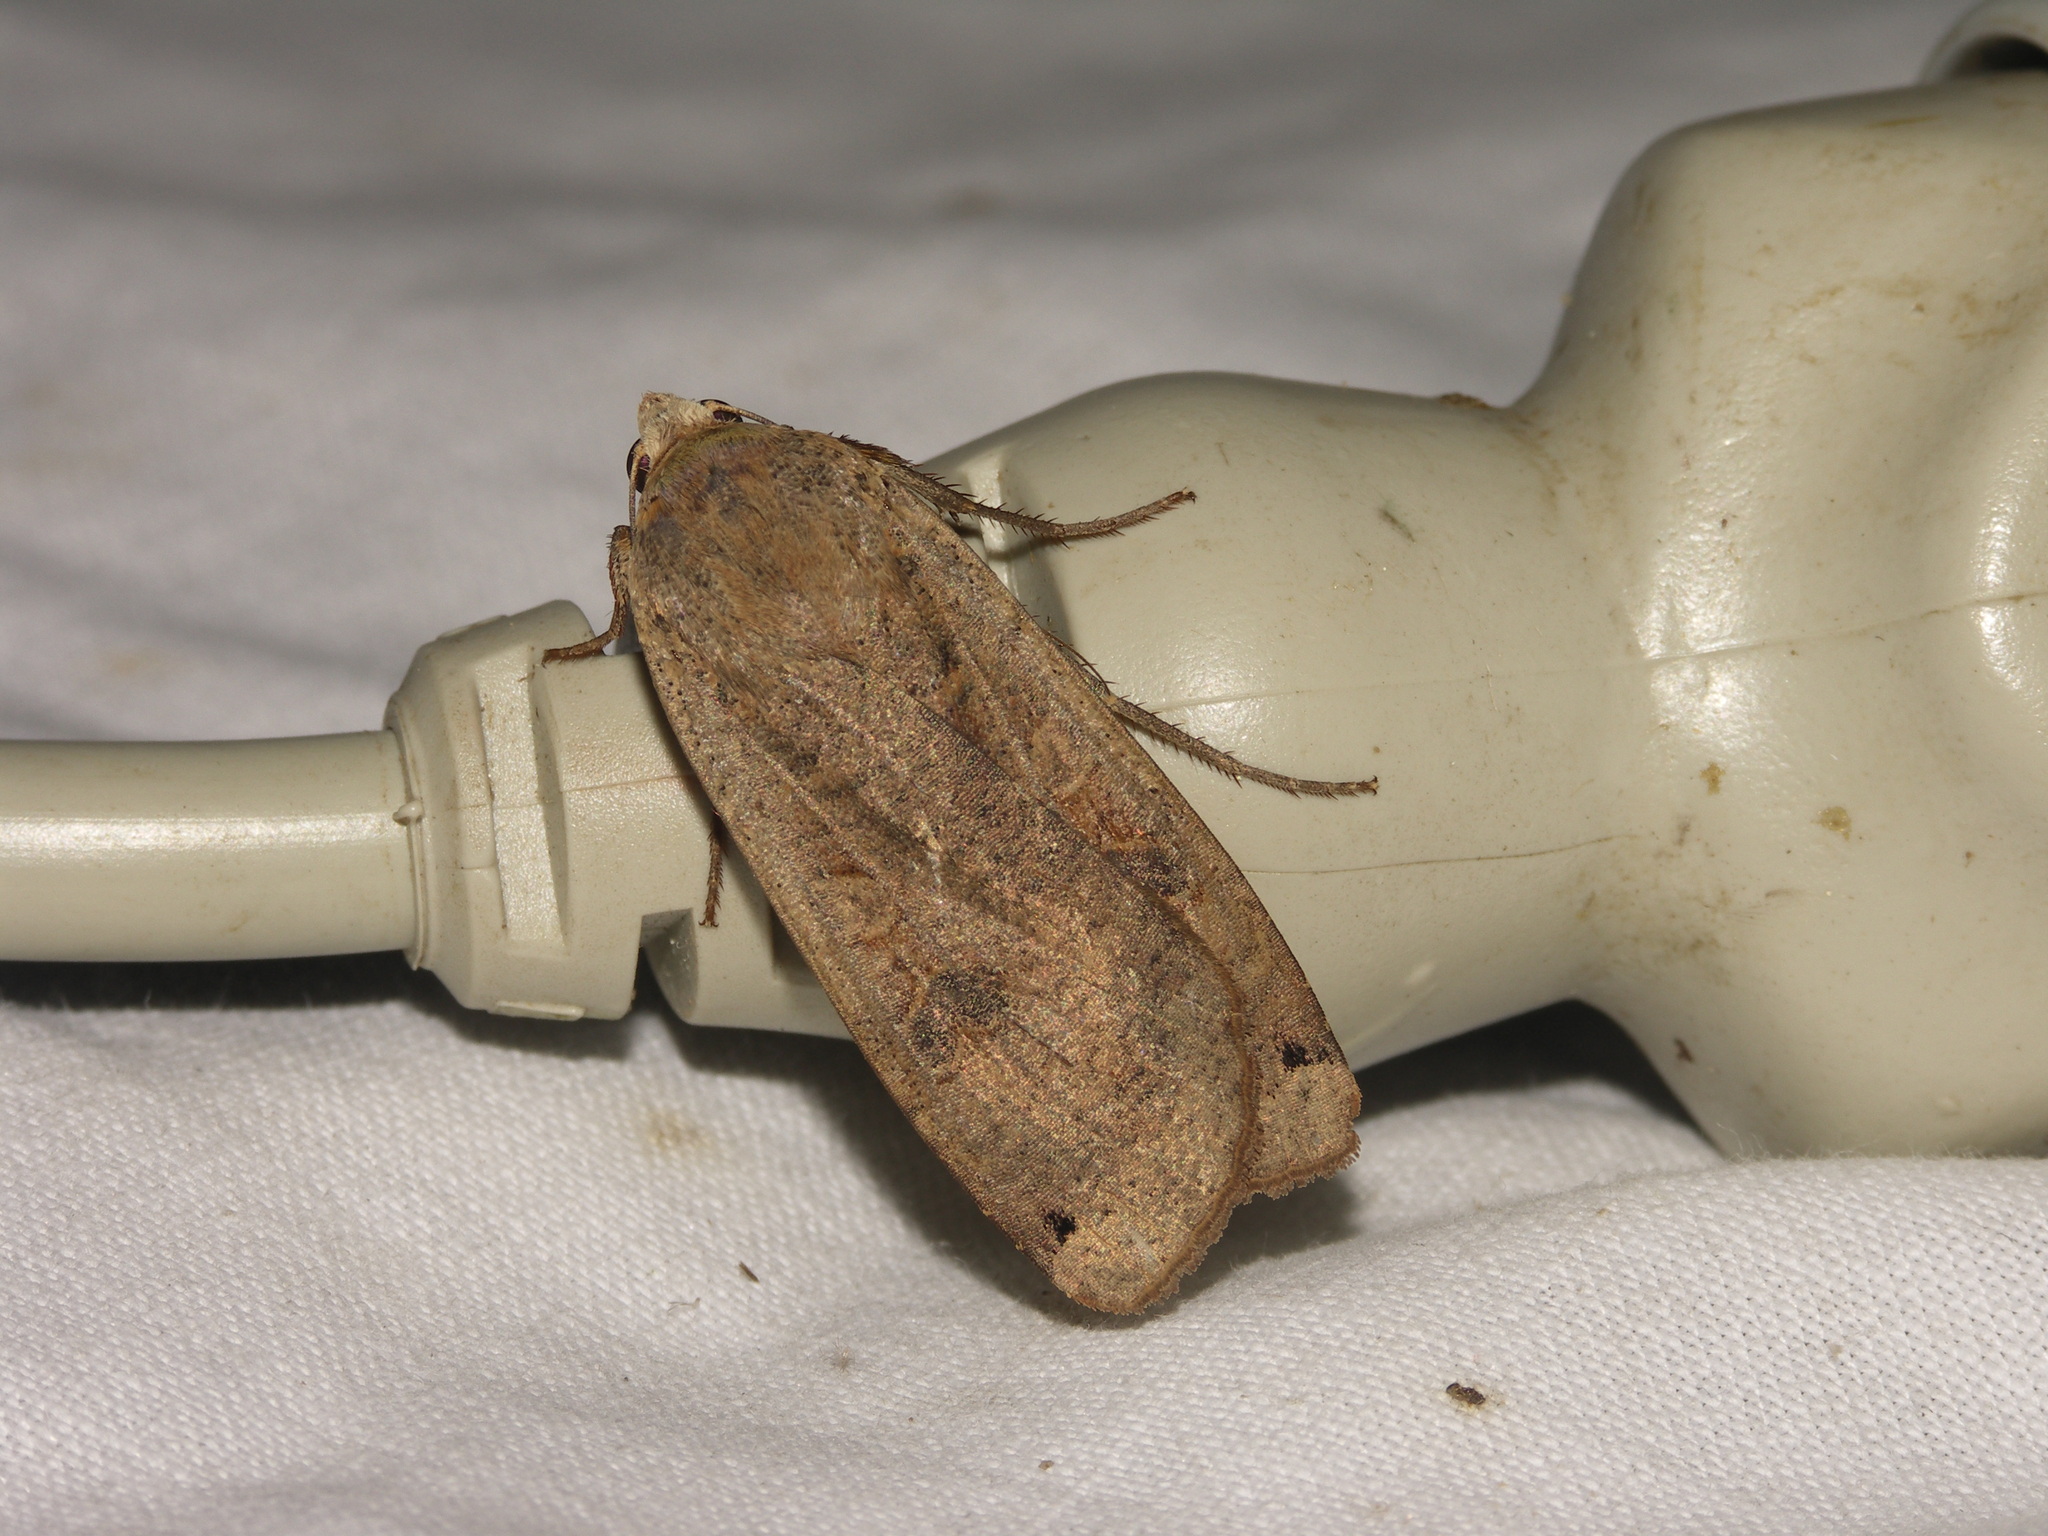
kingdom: Animalia
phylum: Arthropoda
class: Insecta
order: Lepidoptera
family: Noctuidae
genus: Noctua
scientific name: Noctua pronuba
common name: Large yellow underwing
